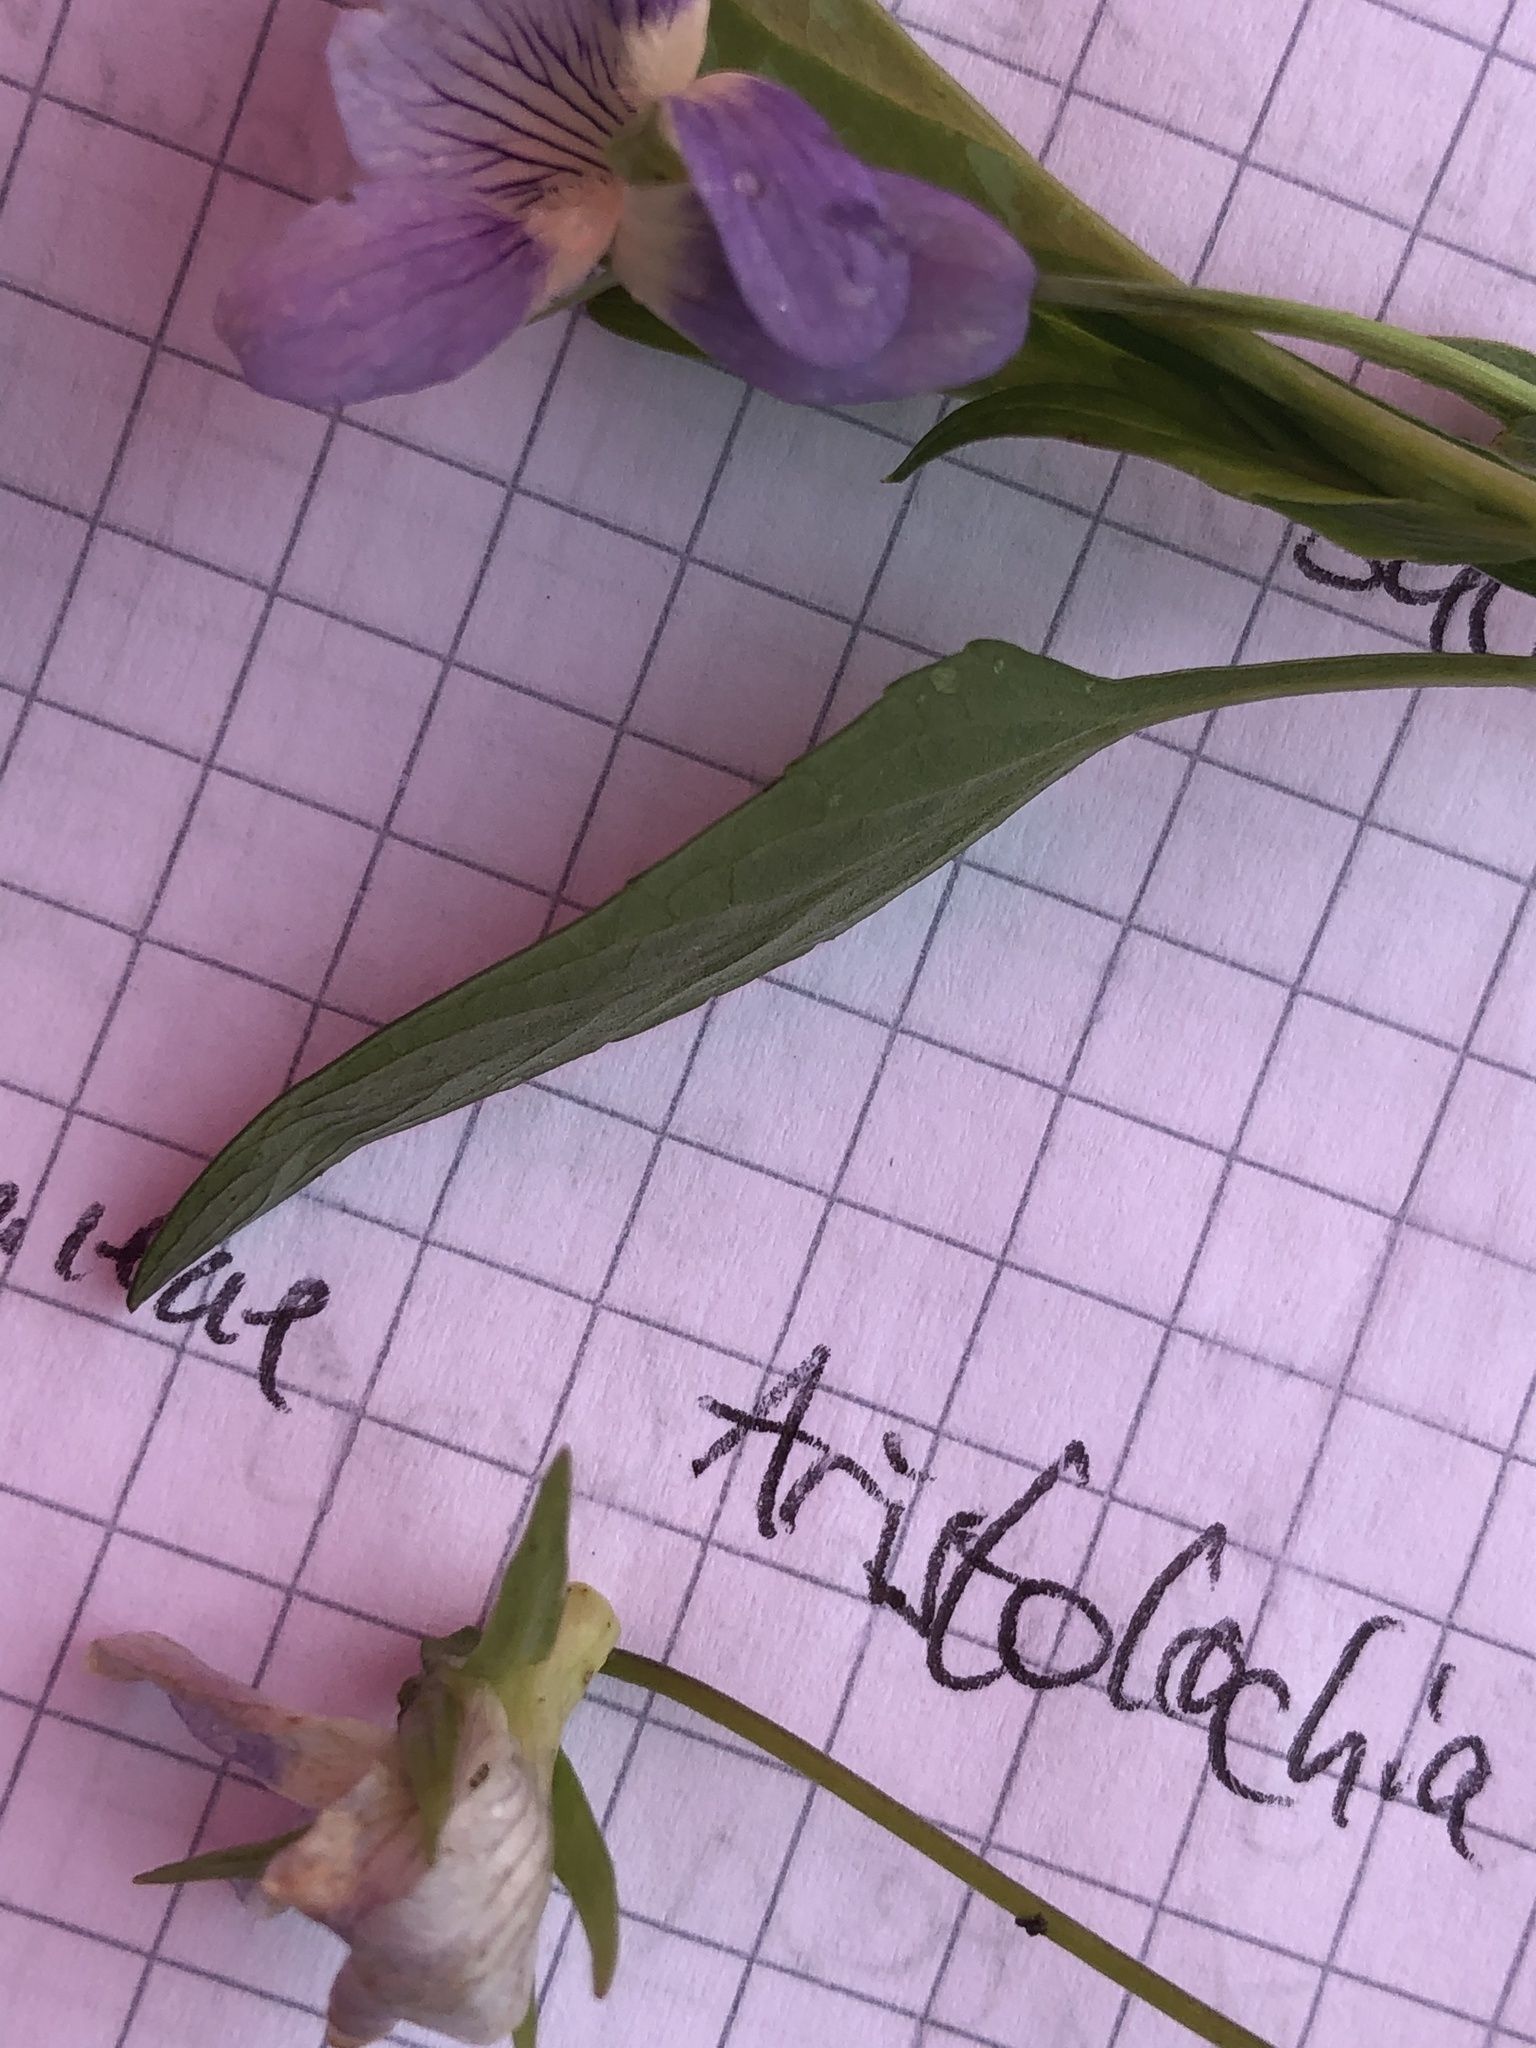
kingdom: Plantae
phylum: Tracheophyta
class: Magnoliopsida
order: Malpighiales
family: Violaceae
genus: Viola
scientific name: Viola pumila
